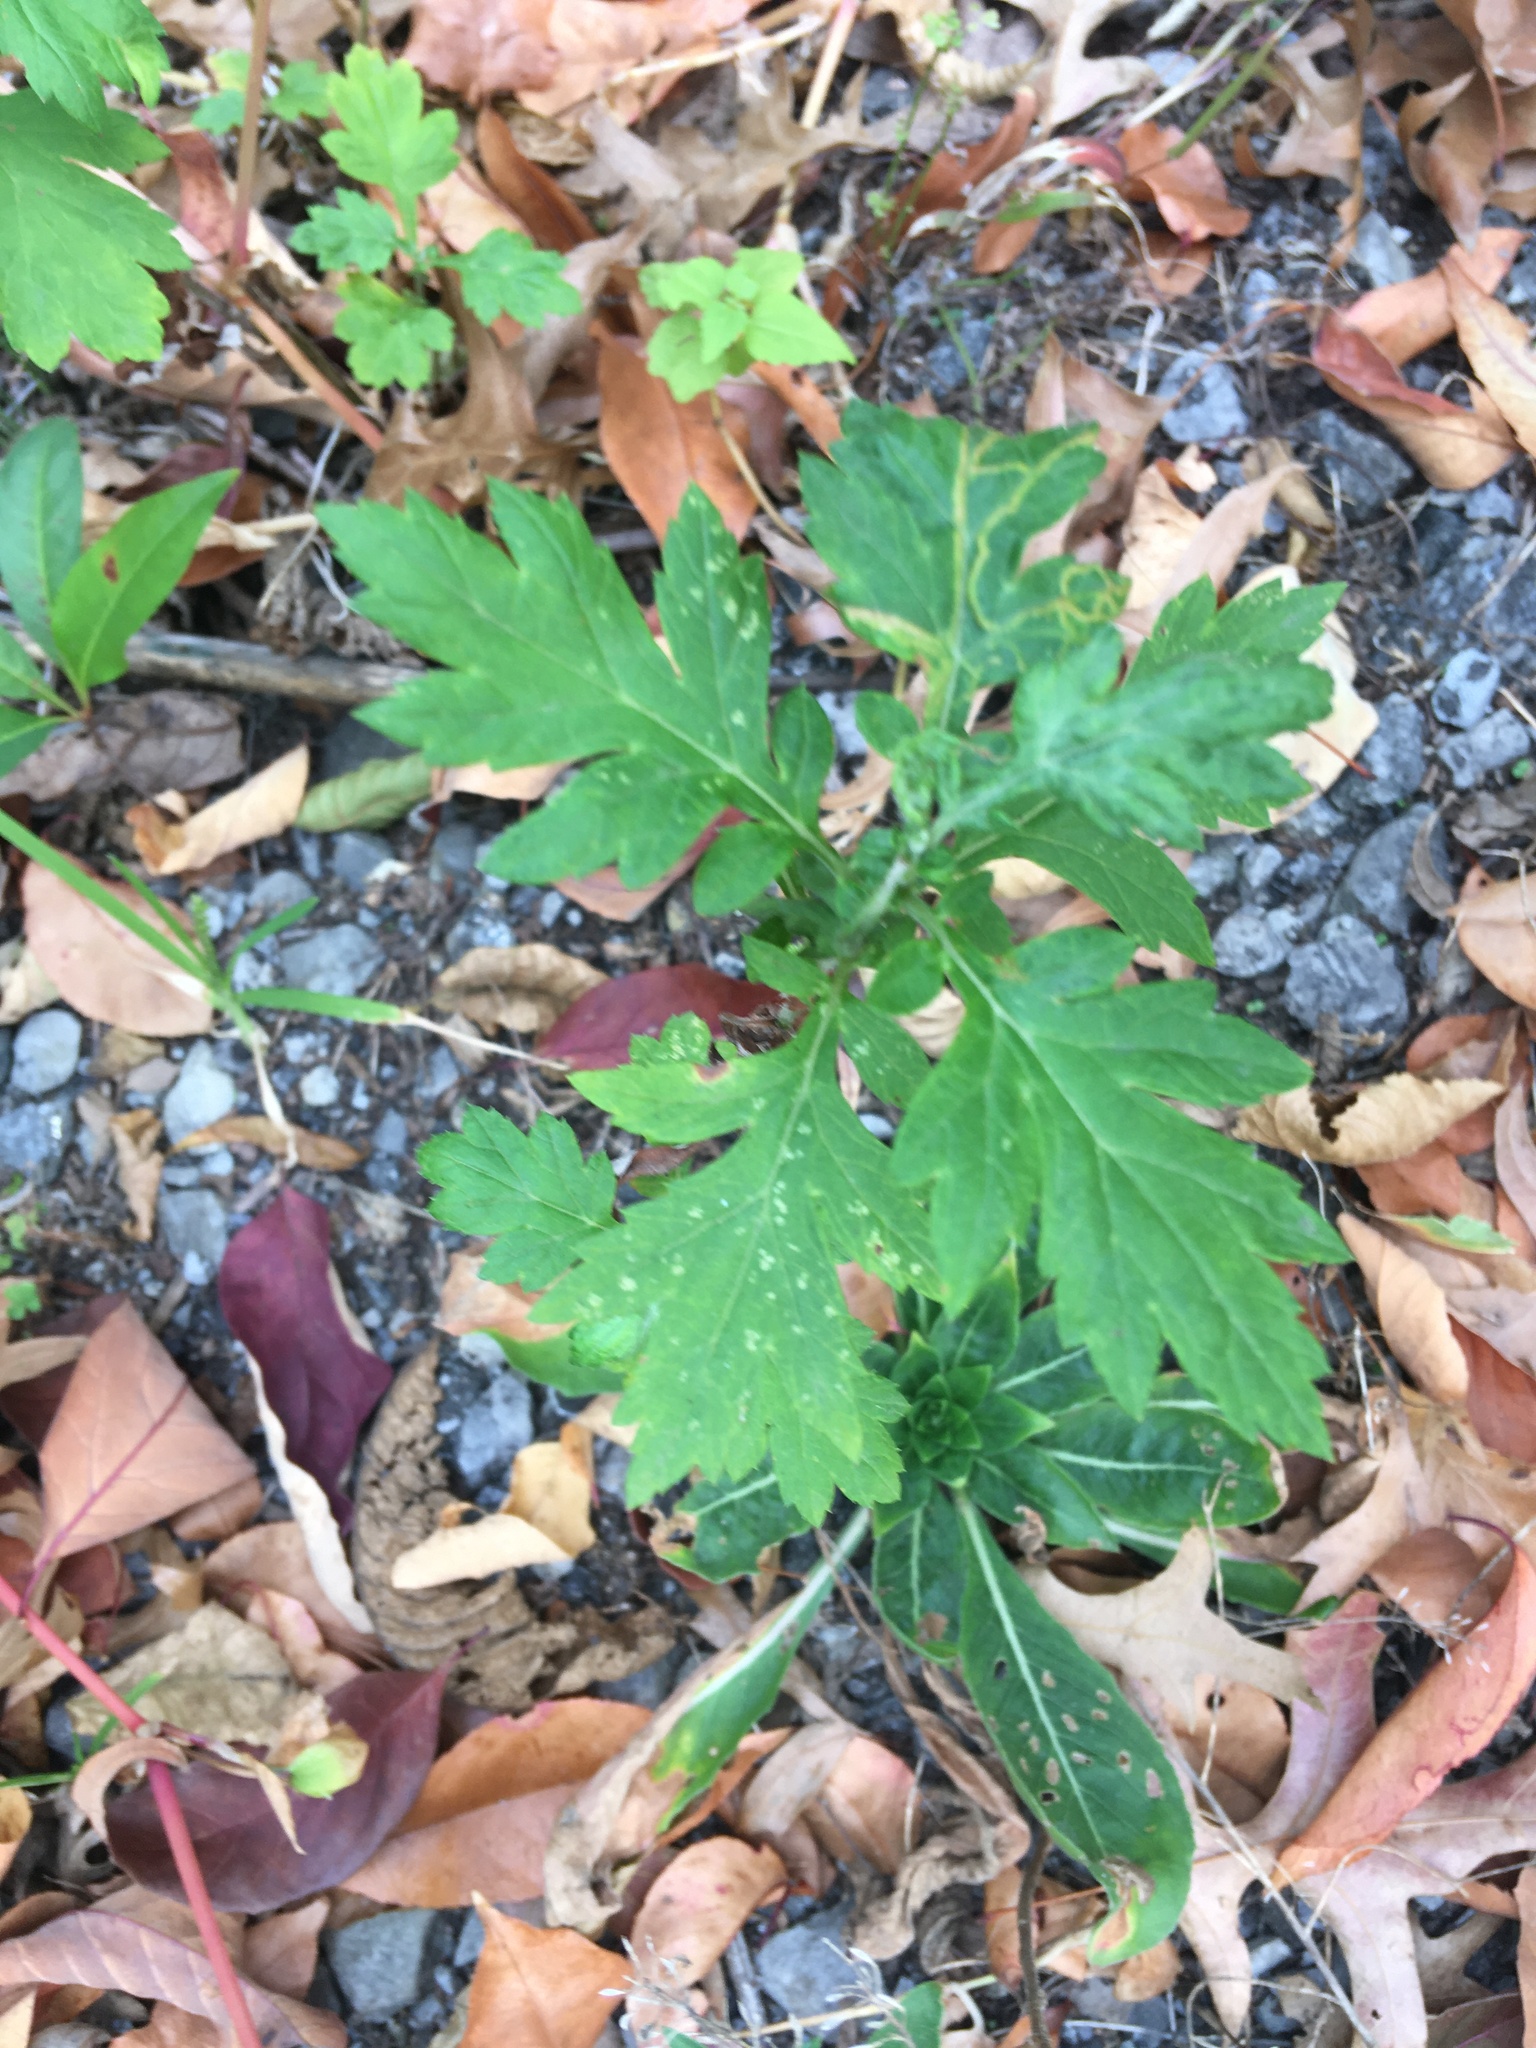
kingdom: Plantae
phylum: Tracheophyta
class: Magnoliopsida
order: Asterales
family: Asteraceae
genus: Artemisia
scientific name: Artemisia vulgaris
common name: Mugwort
